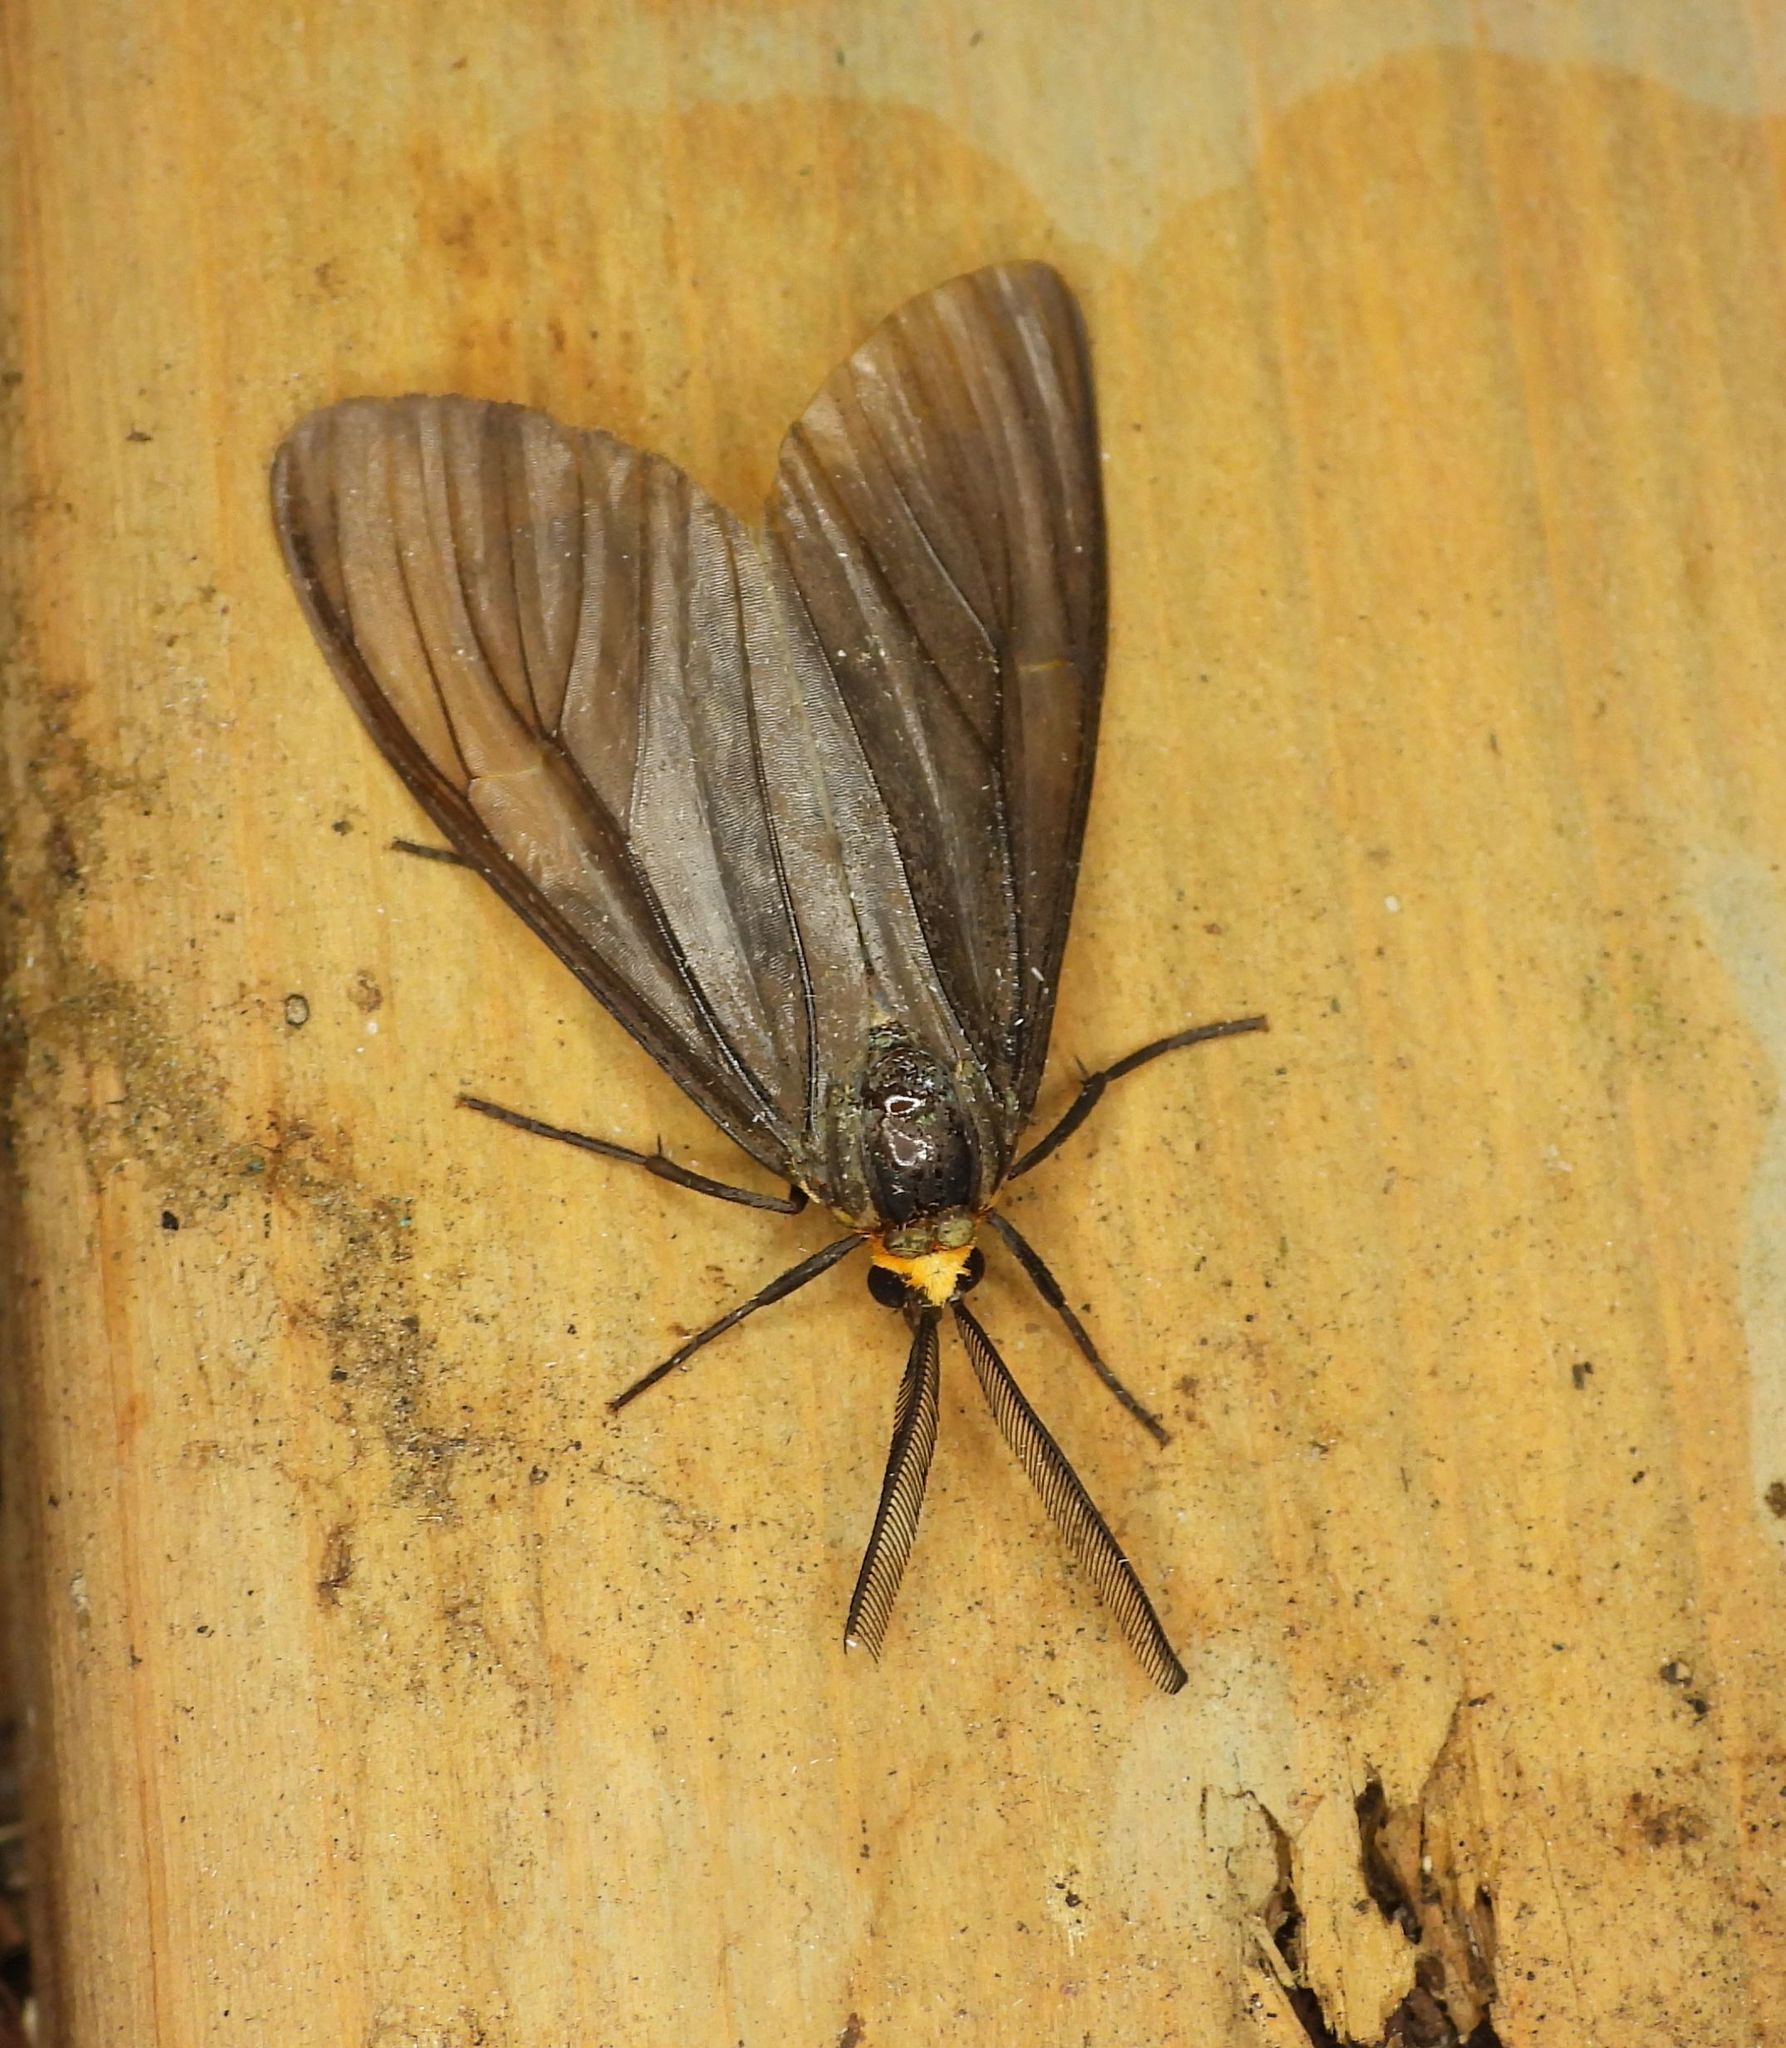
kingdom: Animalia
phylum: Arthropoda
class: Insecta
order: Lepidoptera
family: Erebidae
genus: Ctenucha
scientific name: Ctenucha virginica
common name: Virginia ctenucha moth
